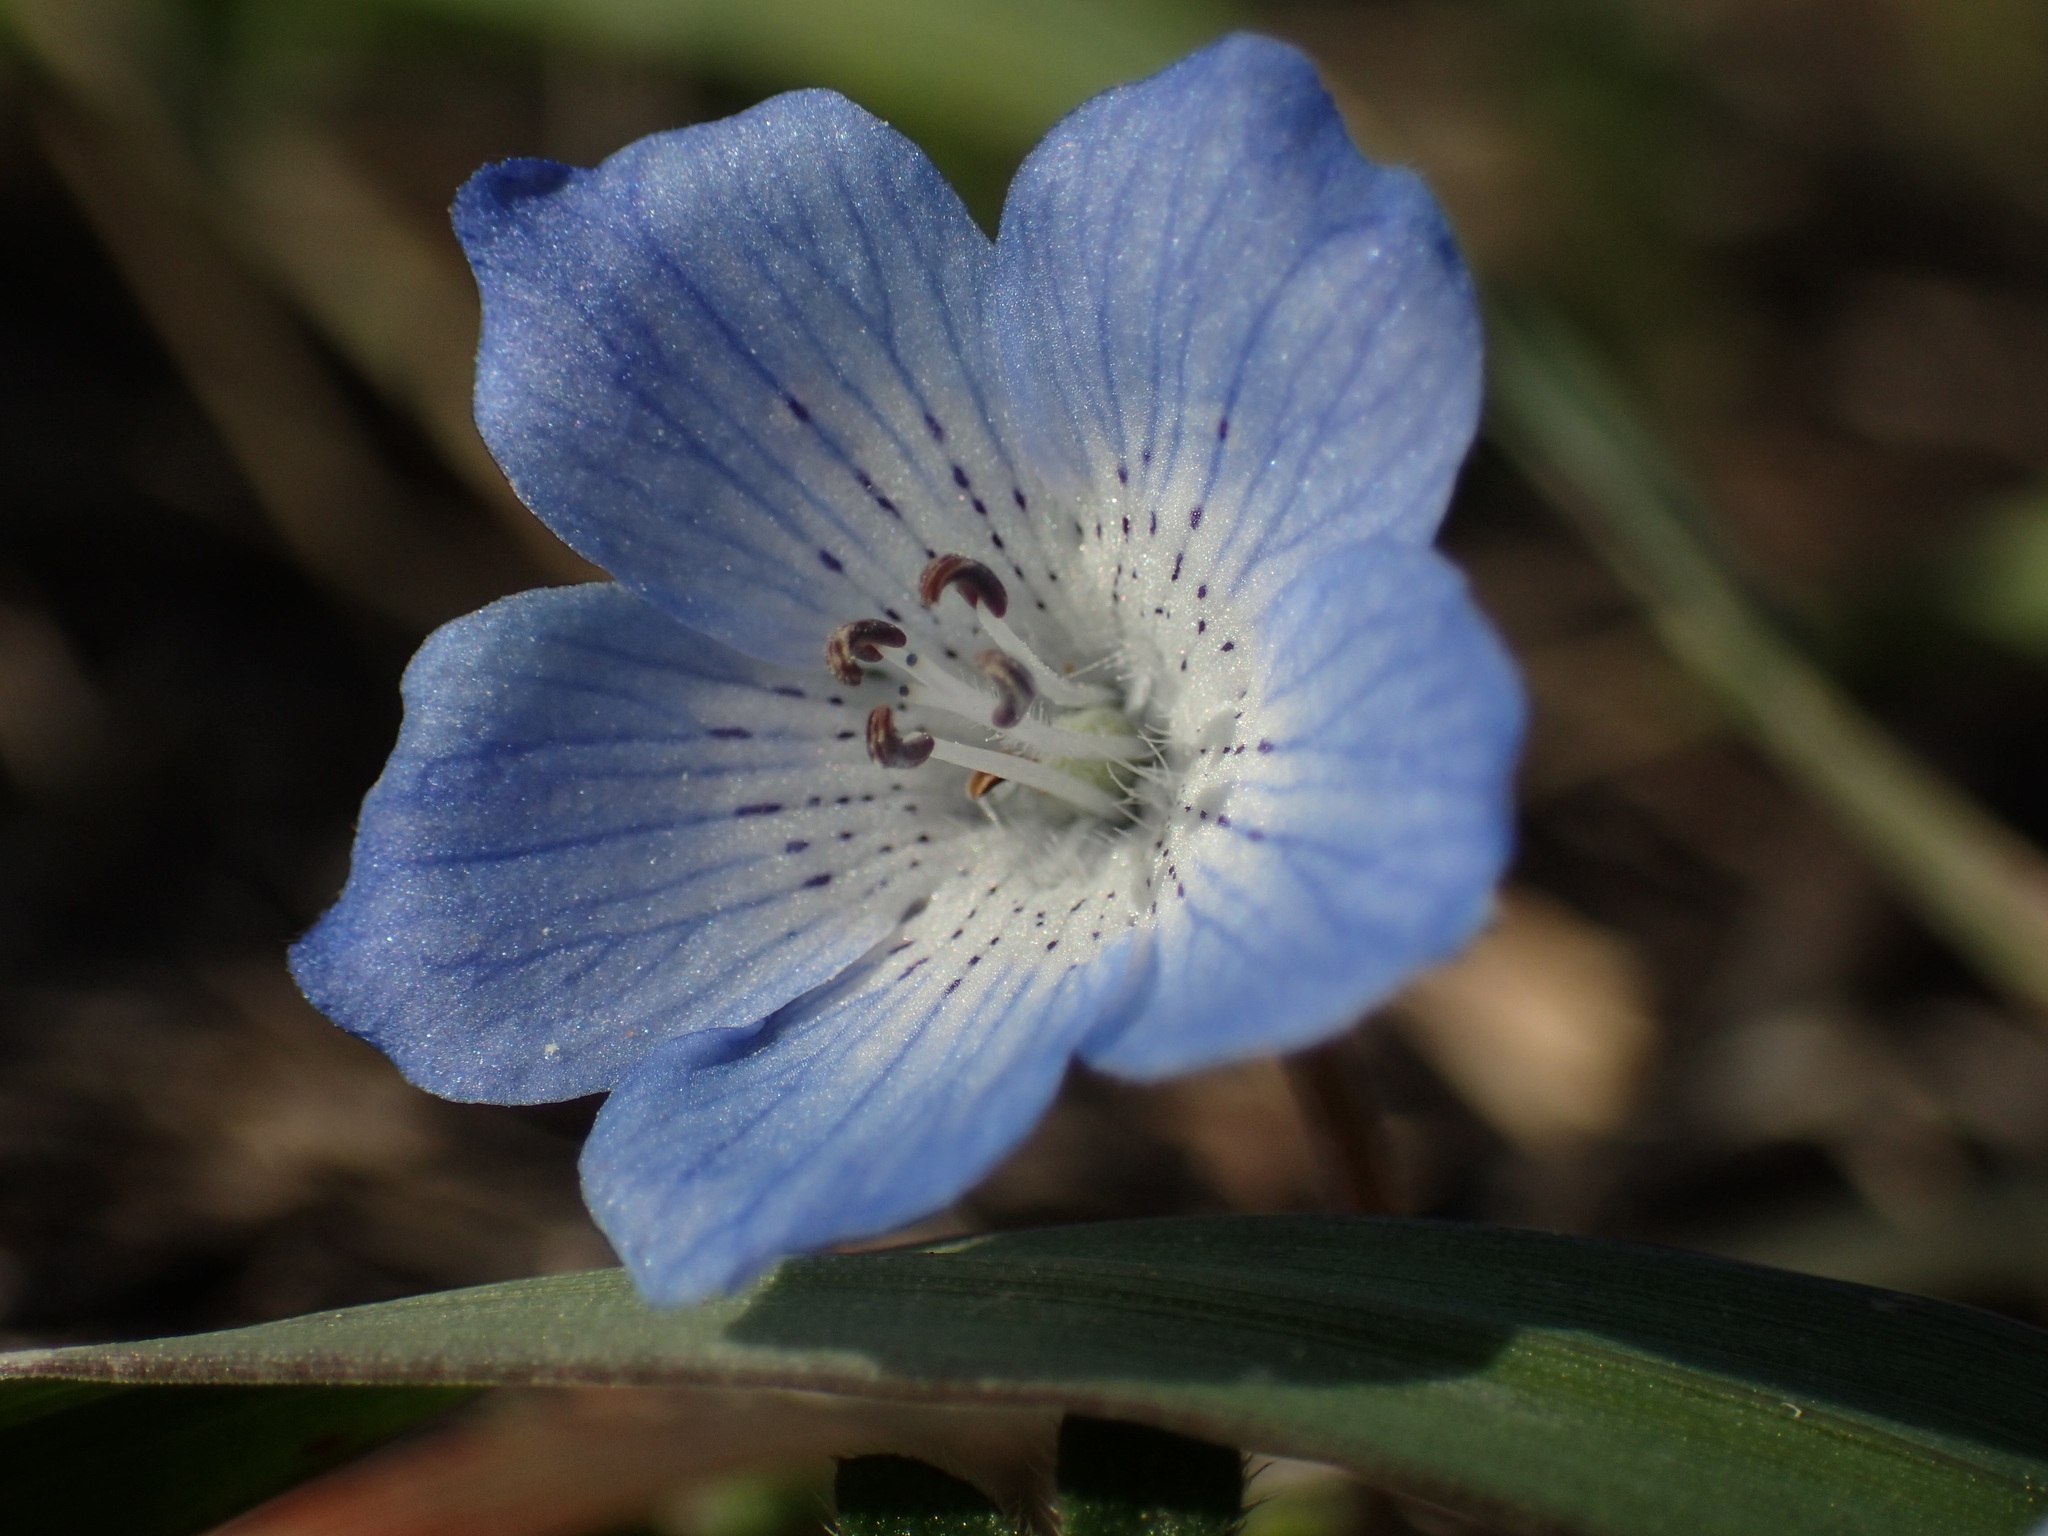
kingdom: Plantae
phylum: Tracheophyta
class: Magnoliopsida
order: Boraginales
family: Hydrophyllaceae
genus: Nemophila
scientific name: Nemophila menziesii
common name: Baby's-blue-eyes
